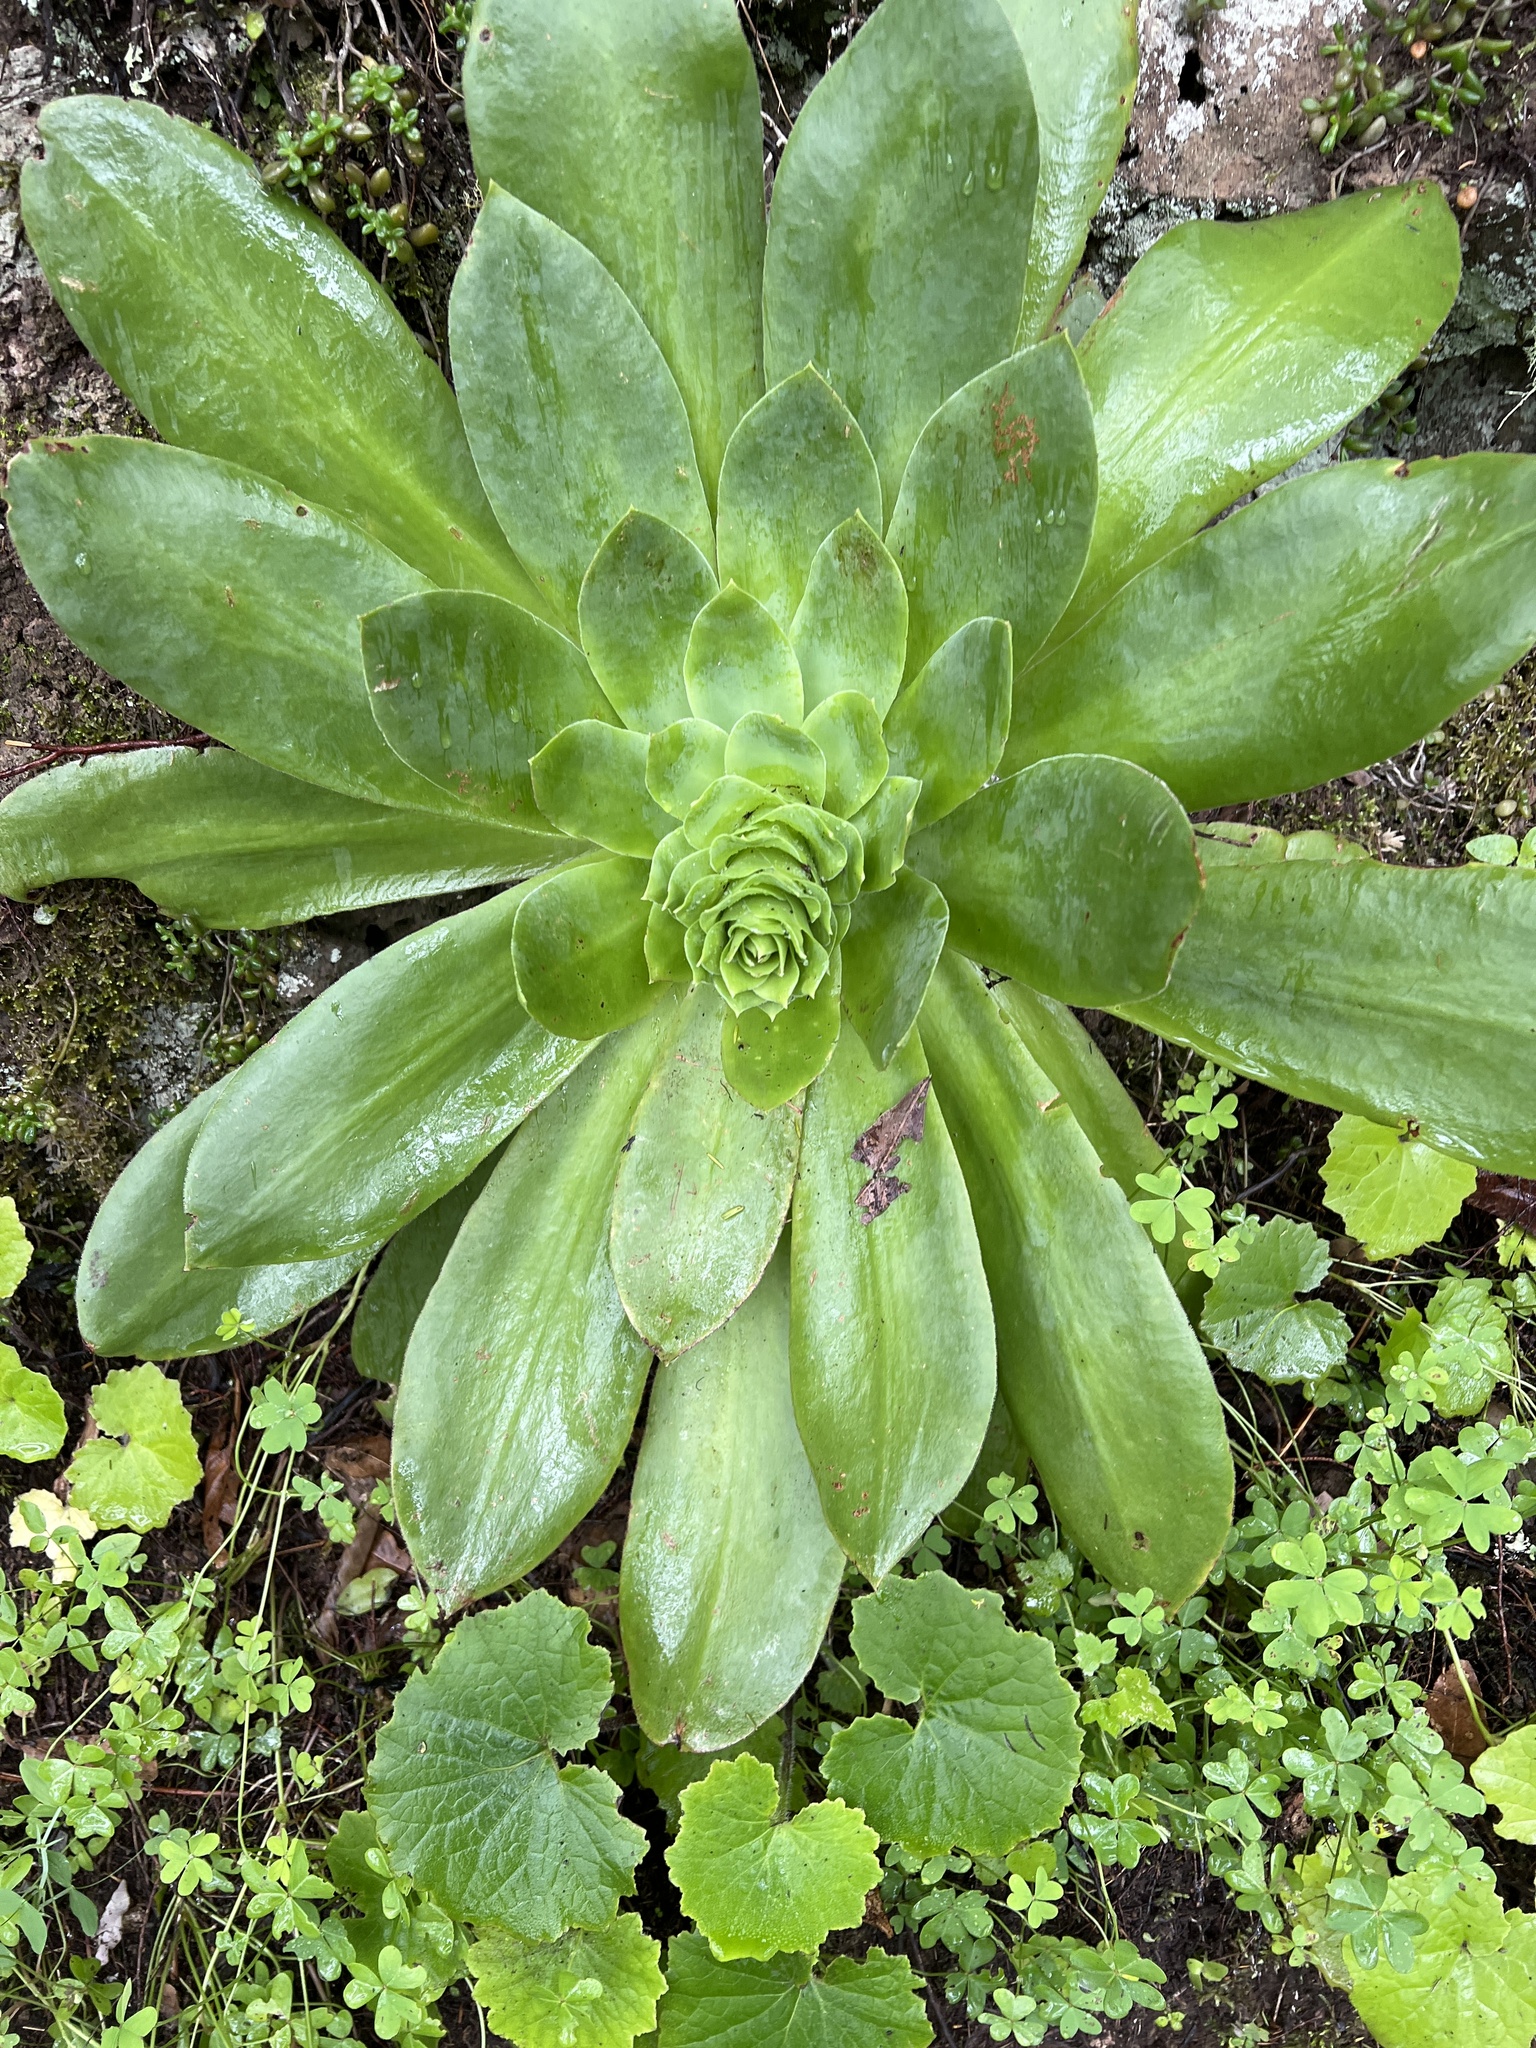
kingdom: Plantae
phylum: Tracheophyta
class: Magnoliopsida
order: Saxifragales
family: Crassulaceae
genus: Aeonium
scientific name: Aeonium cuneatum
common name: Aeonium
